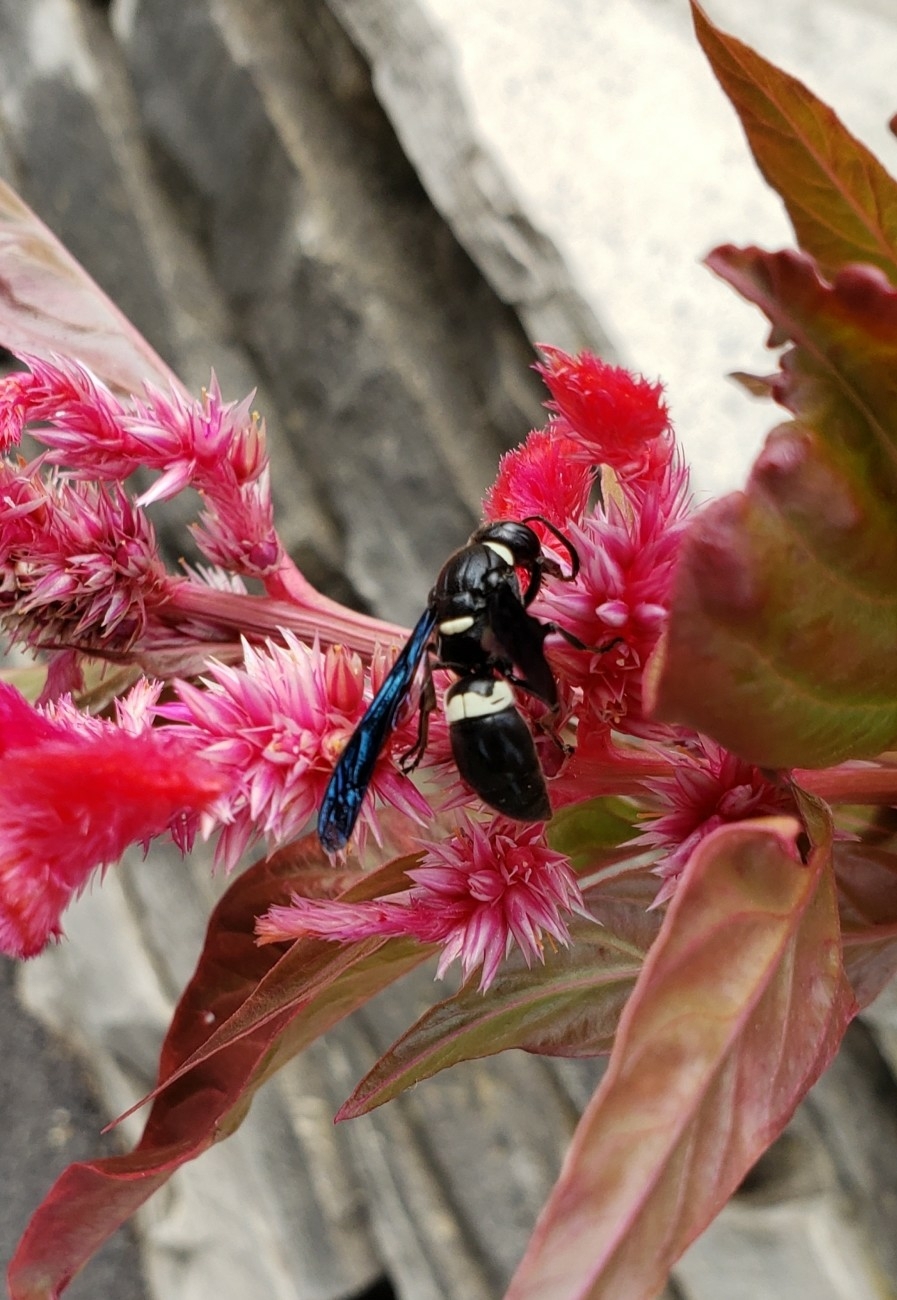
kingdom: Animalia
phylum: Arthropoda
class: Insecta
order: Hymenoptera
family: Eumenidae
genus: Monobia
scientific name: Monobia quadridens
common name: Four-toothed mason wasp
